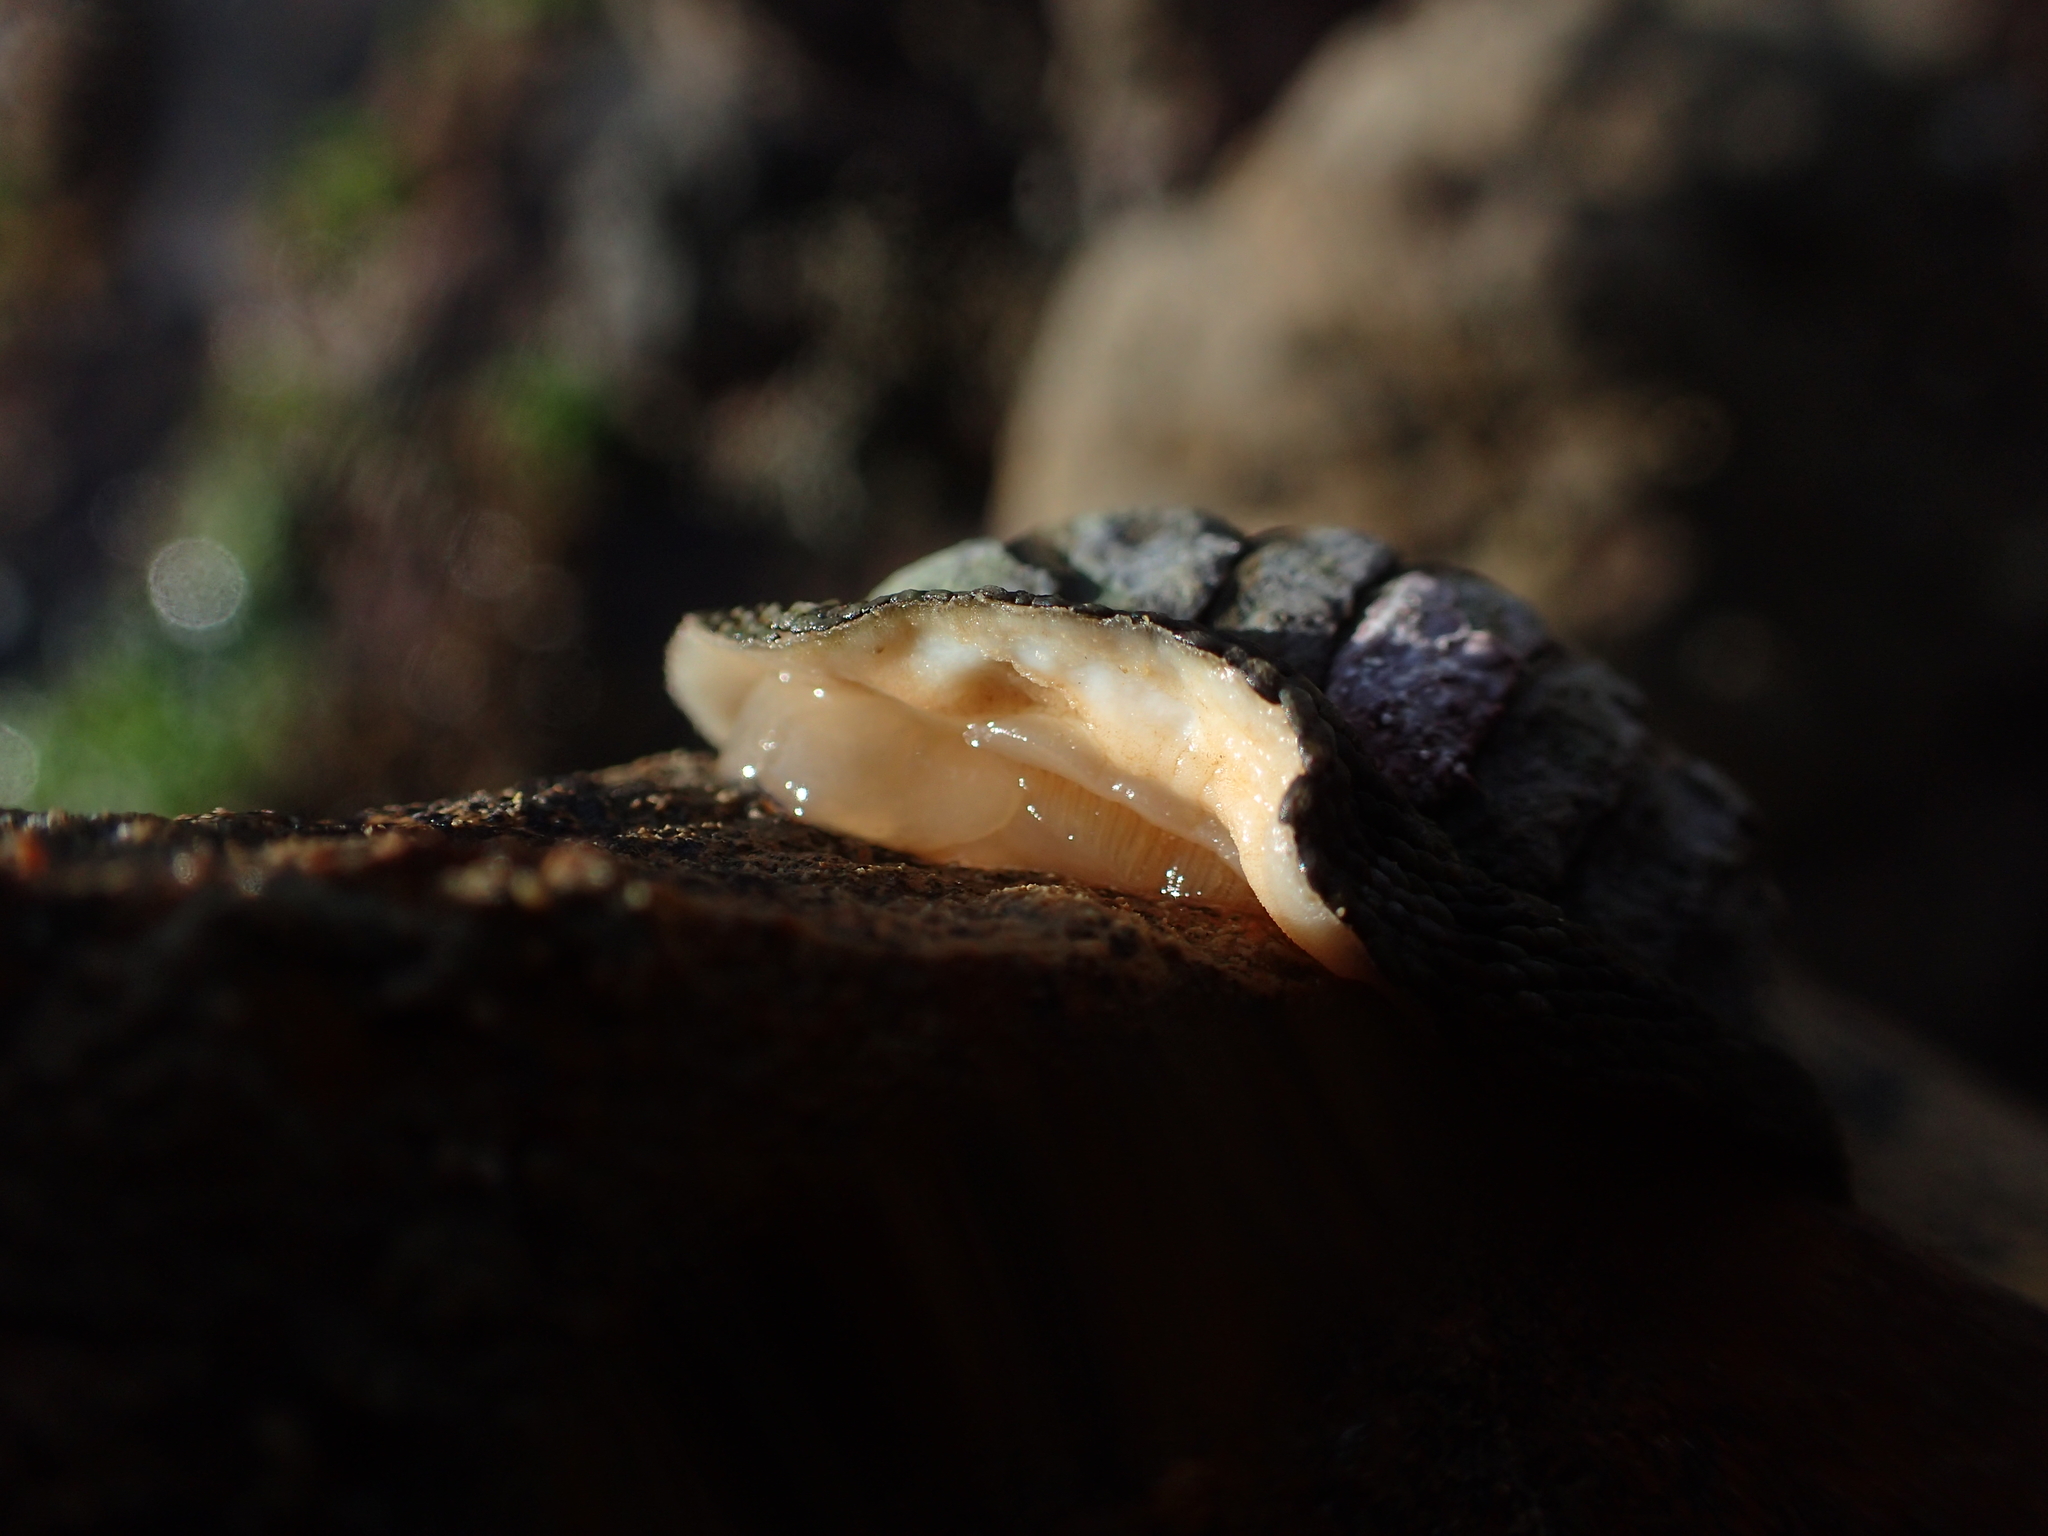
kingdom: Animalia
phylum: Mollusca
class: Polyplacophora
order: Chitonida
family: Chitonidae
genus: Sypharochiton
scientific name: Sypharochiton pelliserpentis
